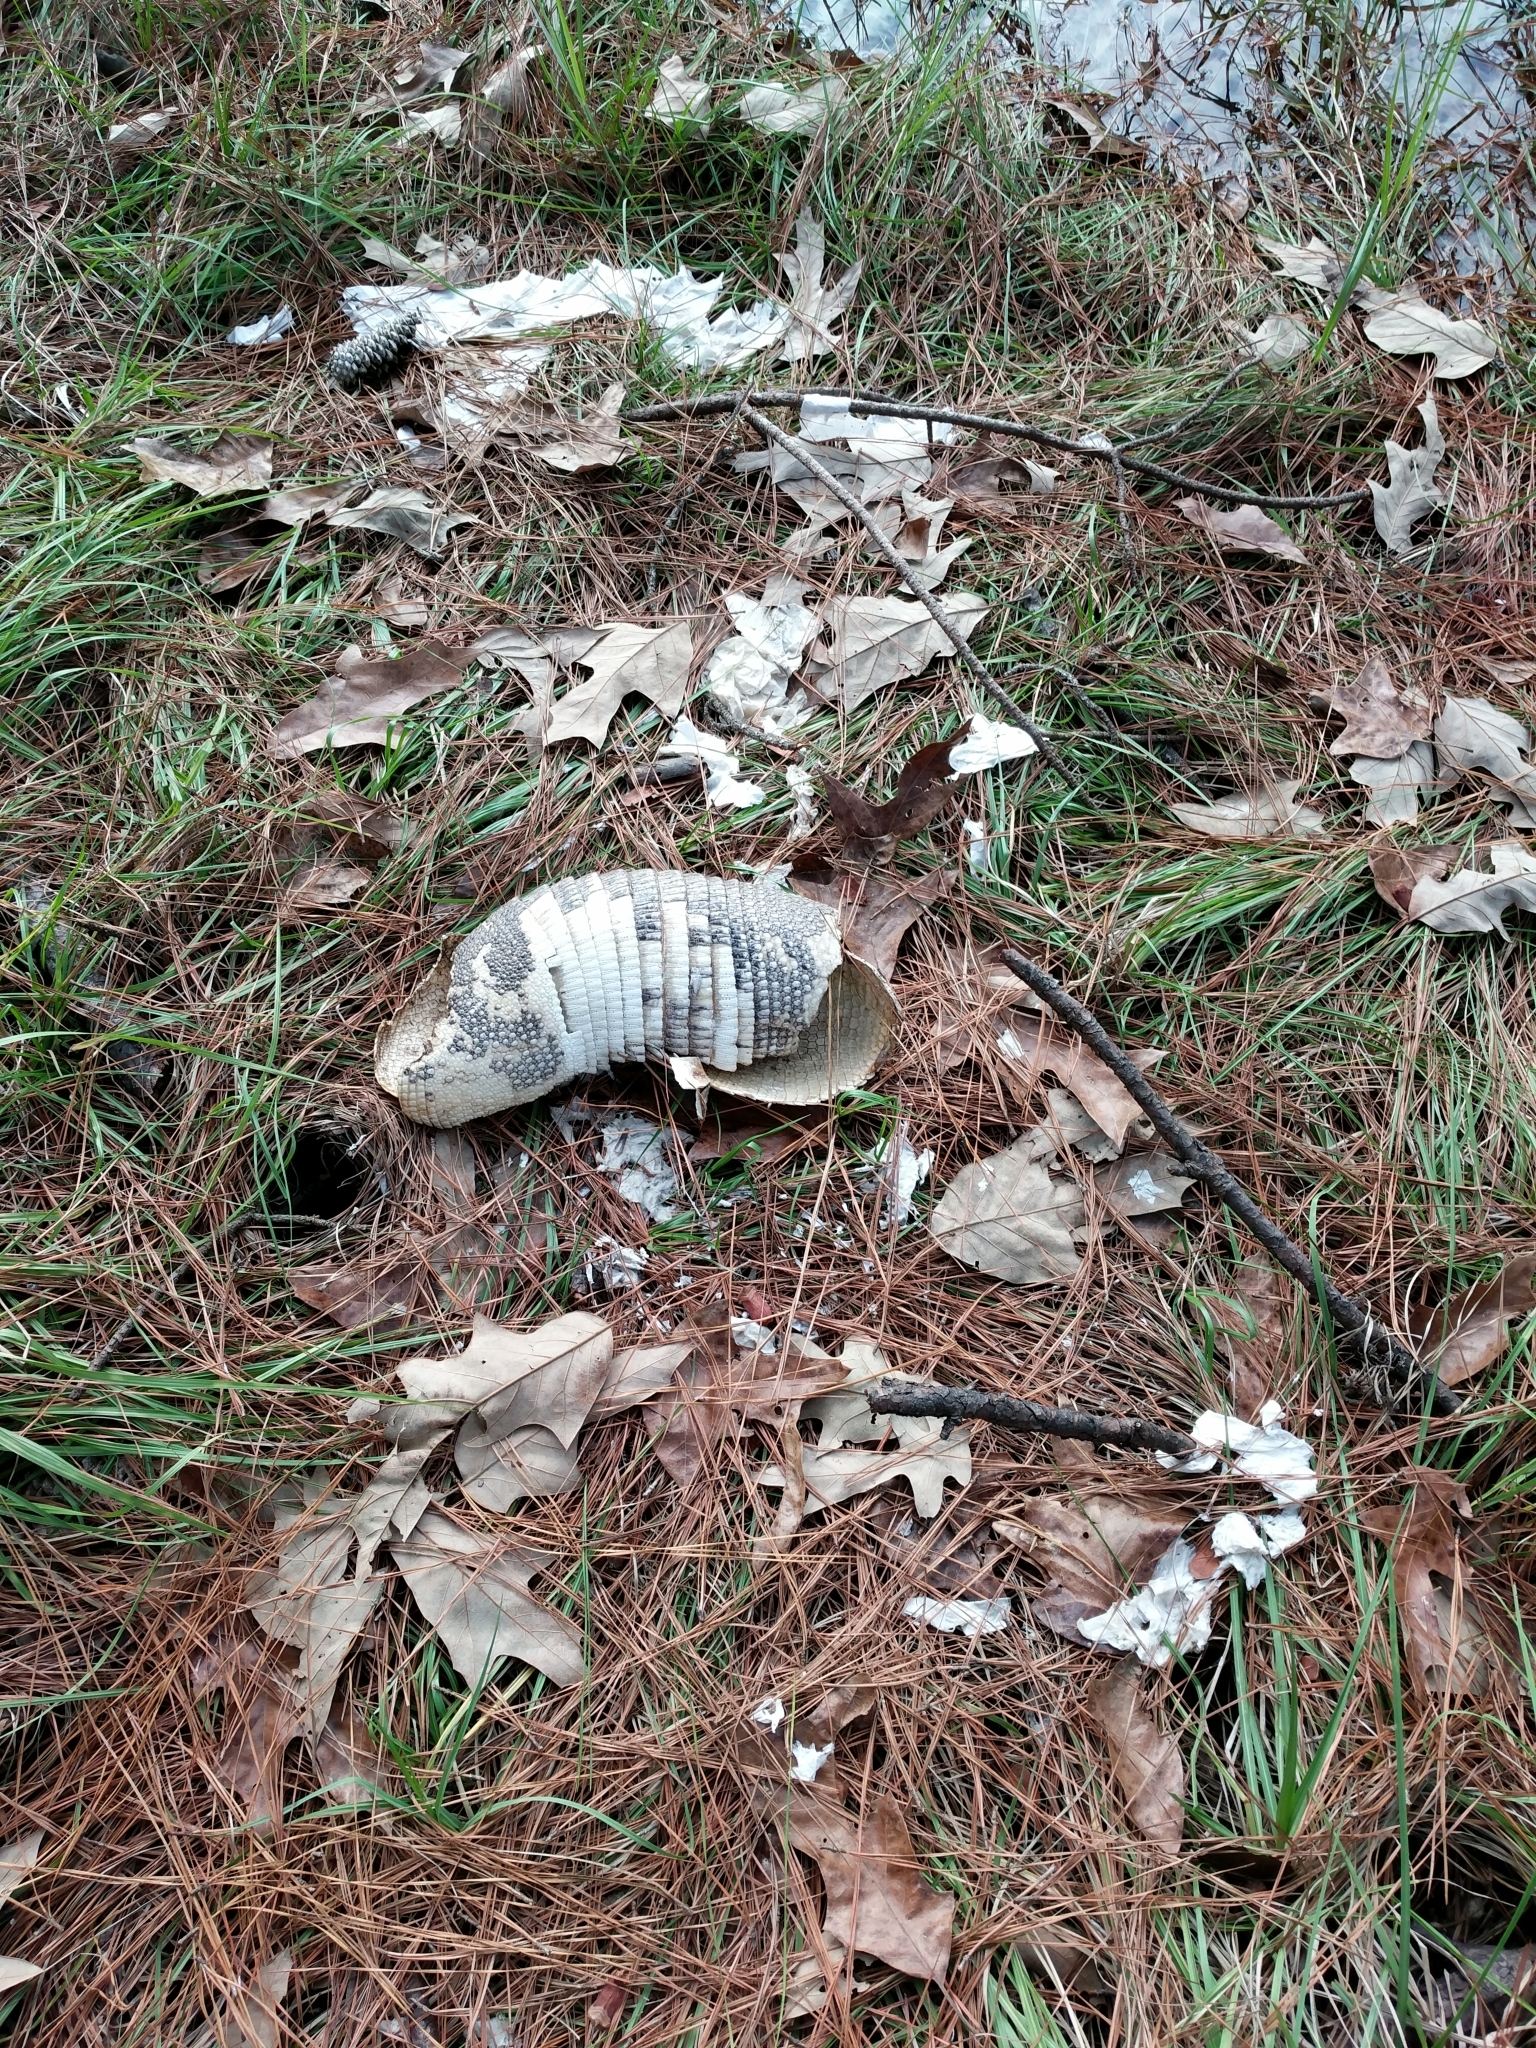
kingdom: Animalia
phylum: Chordata
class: Mammalia
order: Cingulata
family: Dasypodidae
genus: Dasypus
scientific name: Dasypus novemcinctus
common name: Nine-banded armadillo
